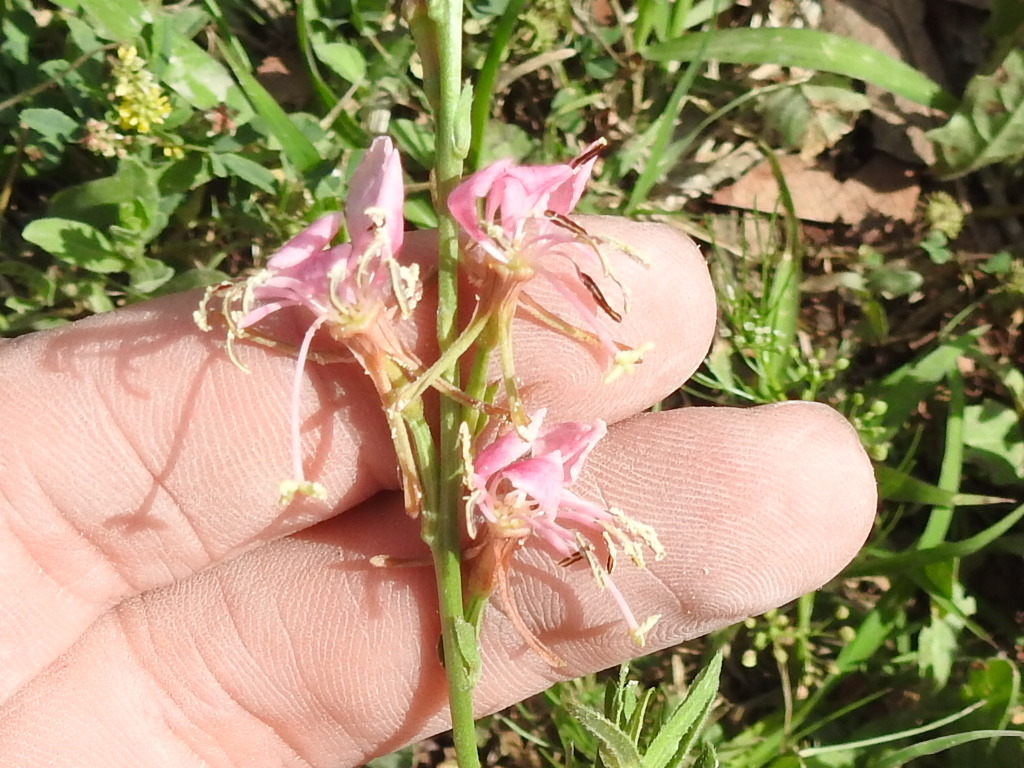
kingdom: Plantae
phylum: Tracheophyta
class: Magnoliopsida
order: Myrtales
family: Onagraceae
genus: Oenothera
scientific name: Oenothera suffulta
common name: Kisses
